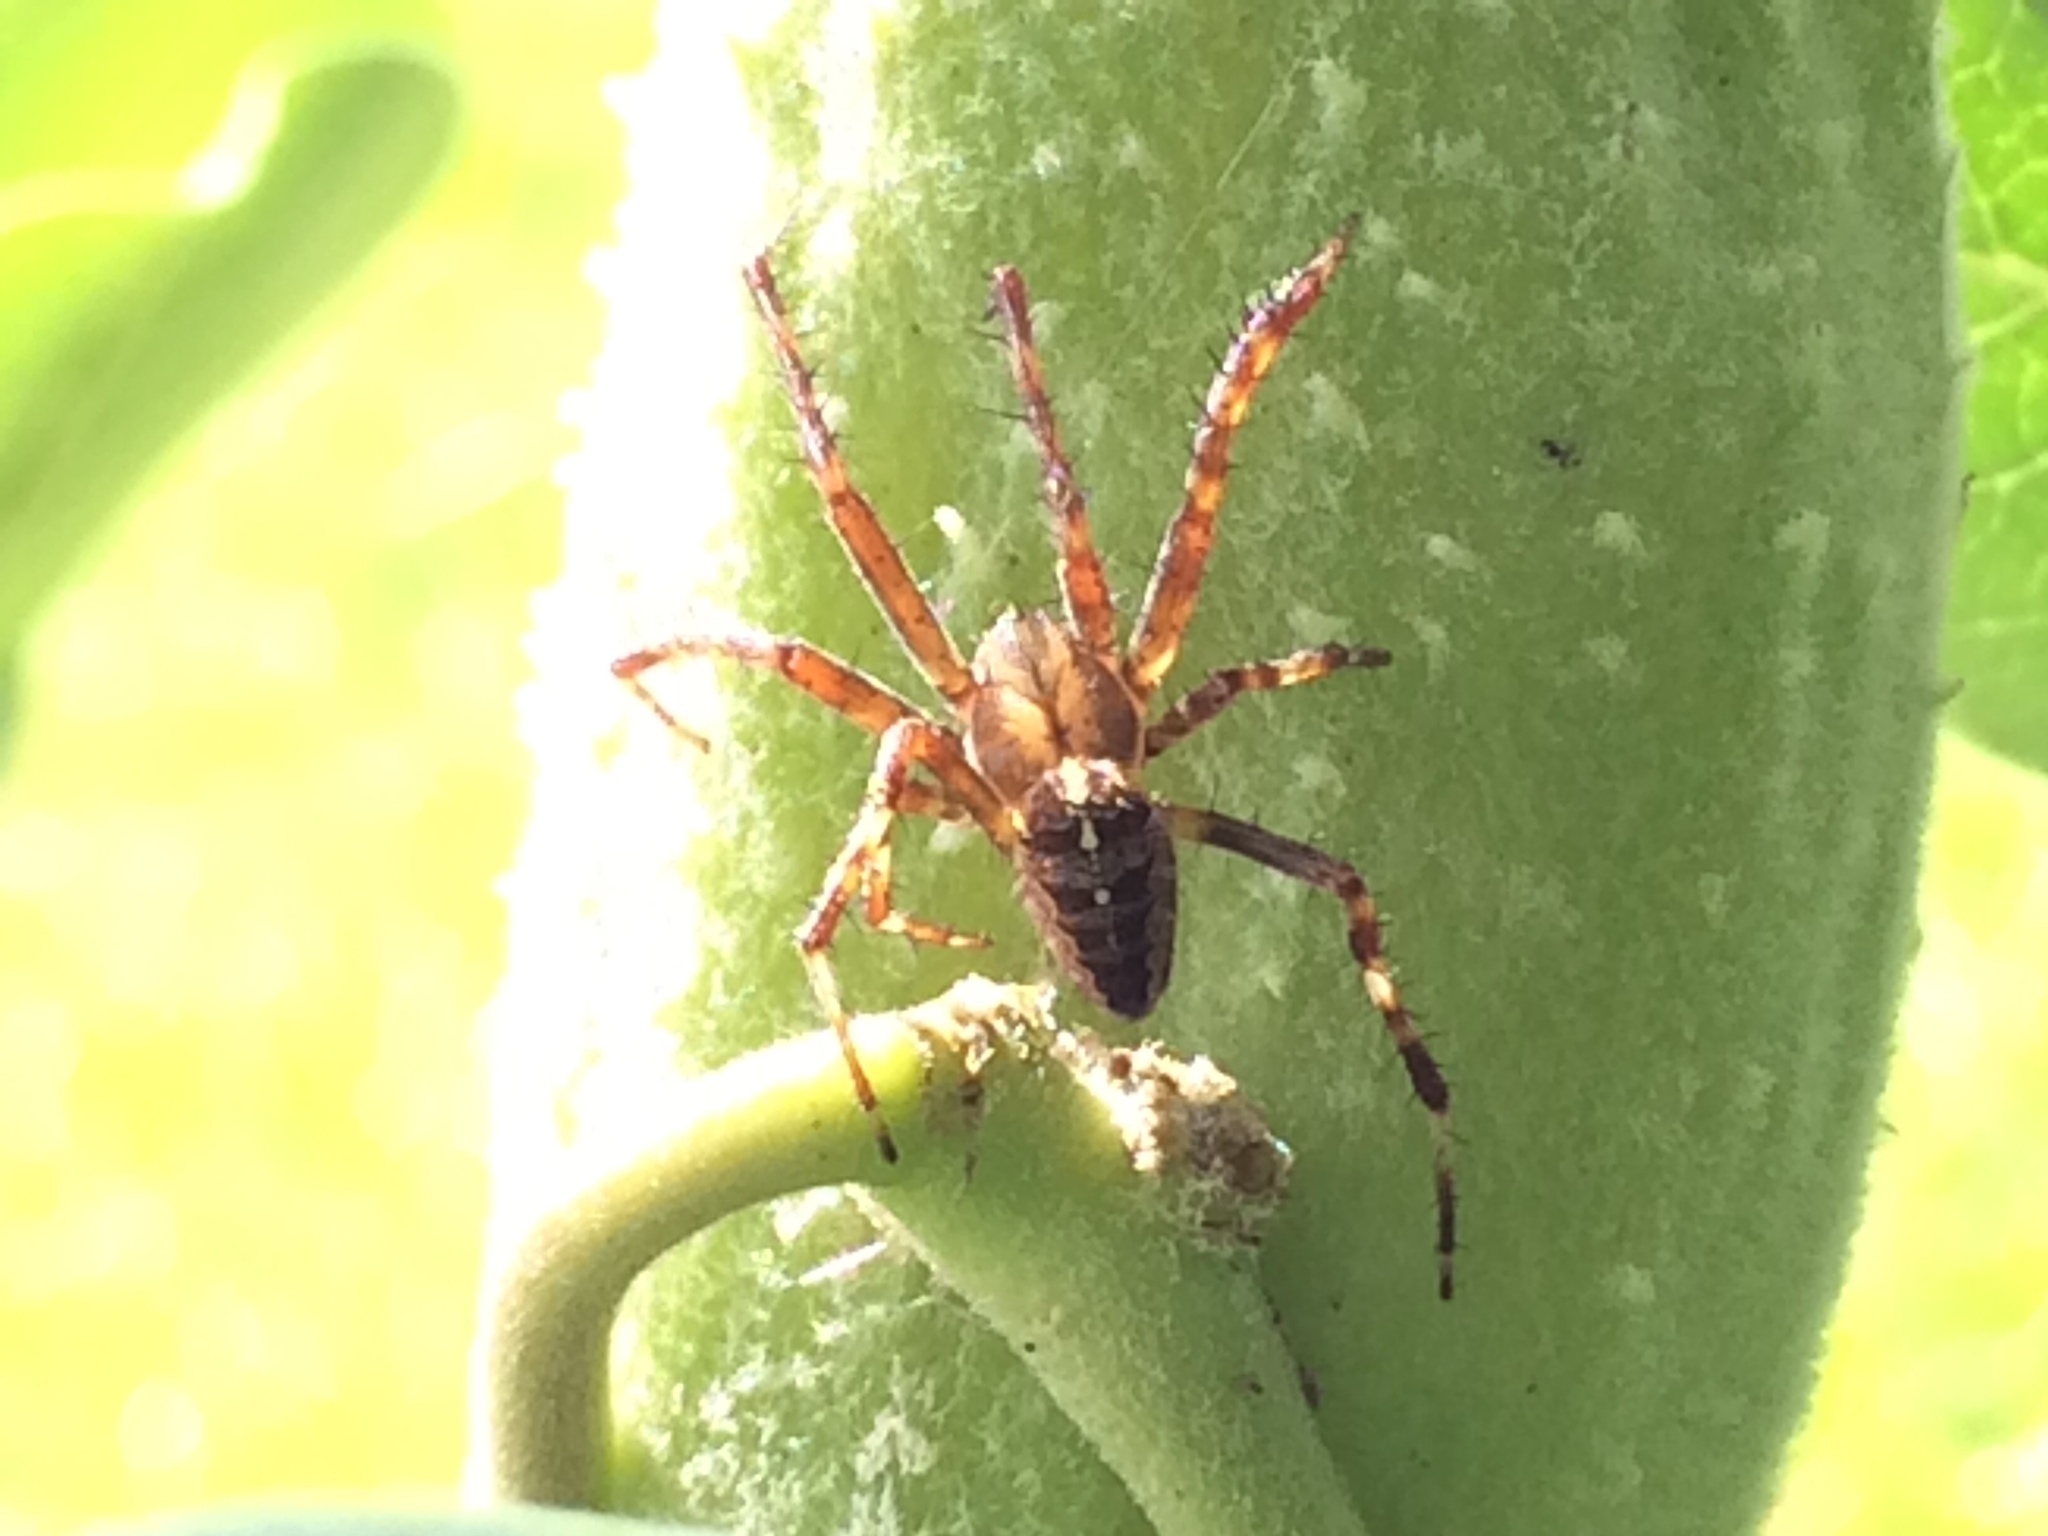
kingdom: Animalia
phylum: Arthropoda
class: Arachnida
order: Araneae
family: Araneidae
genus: Araneus
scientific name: Araneus diadematus
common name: Cross orbweaver
